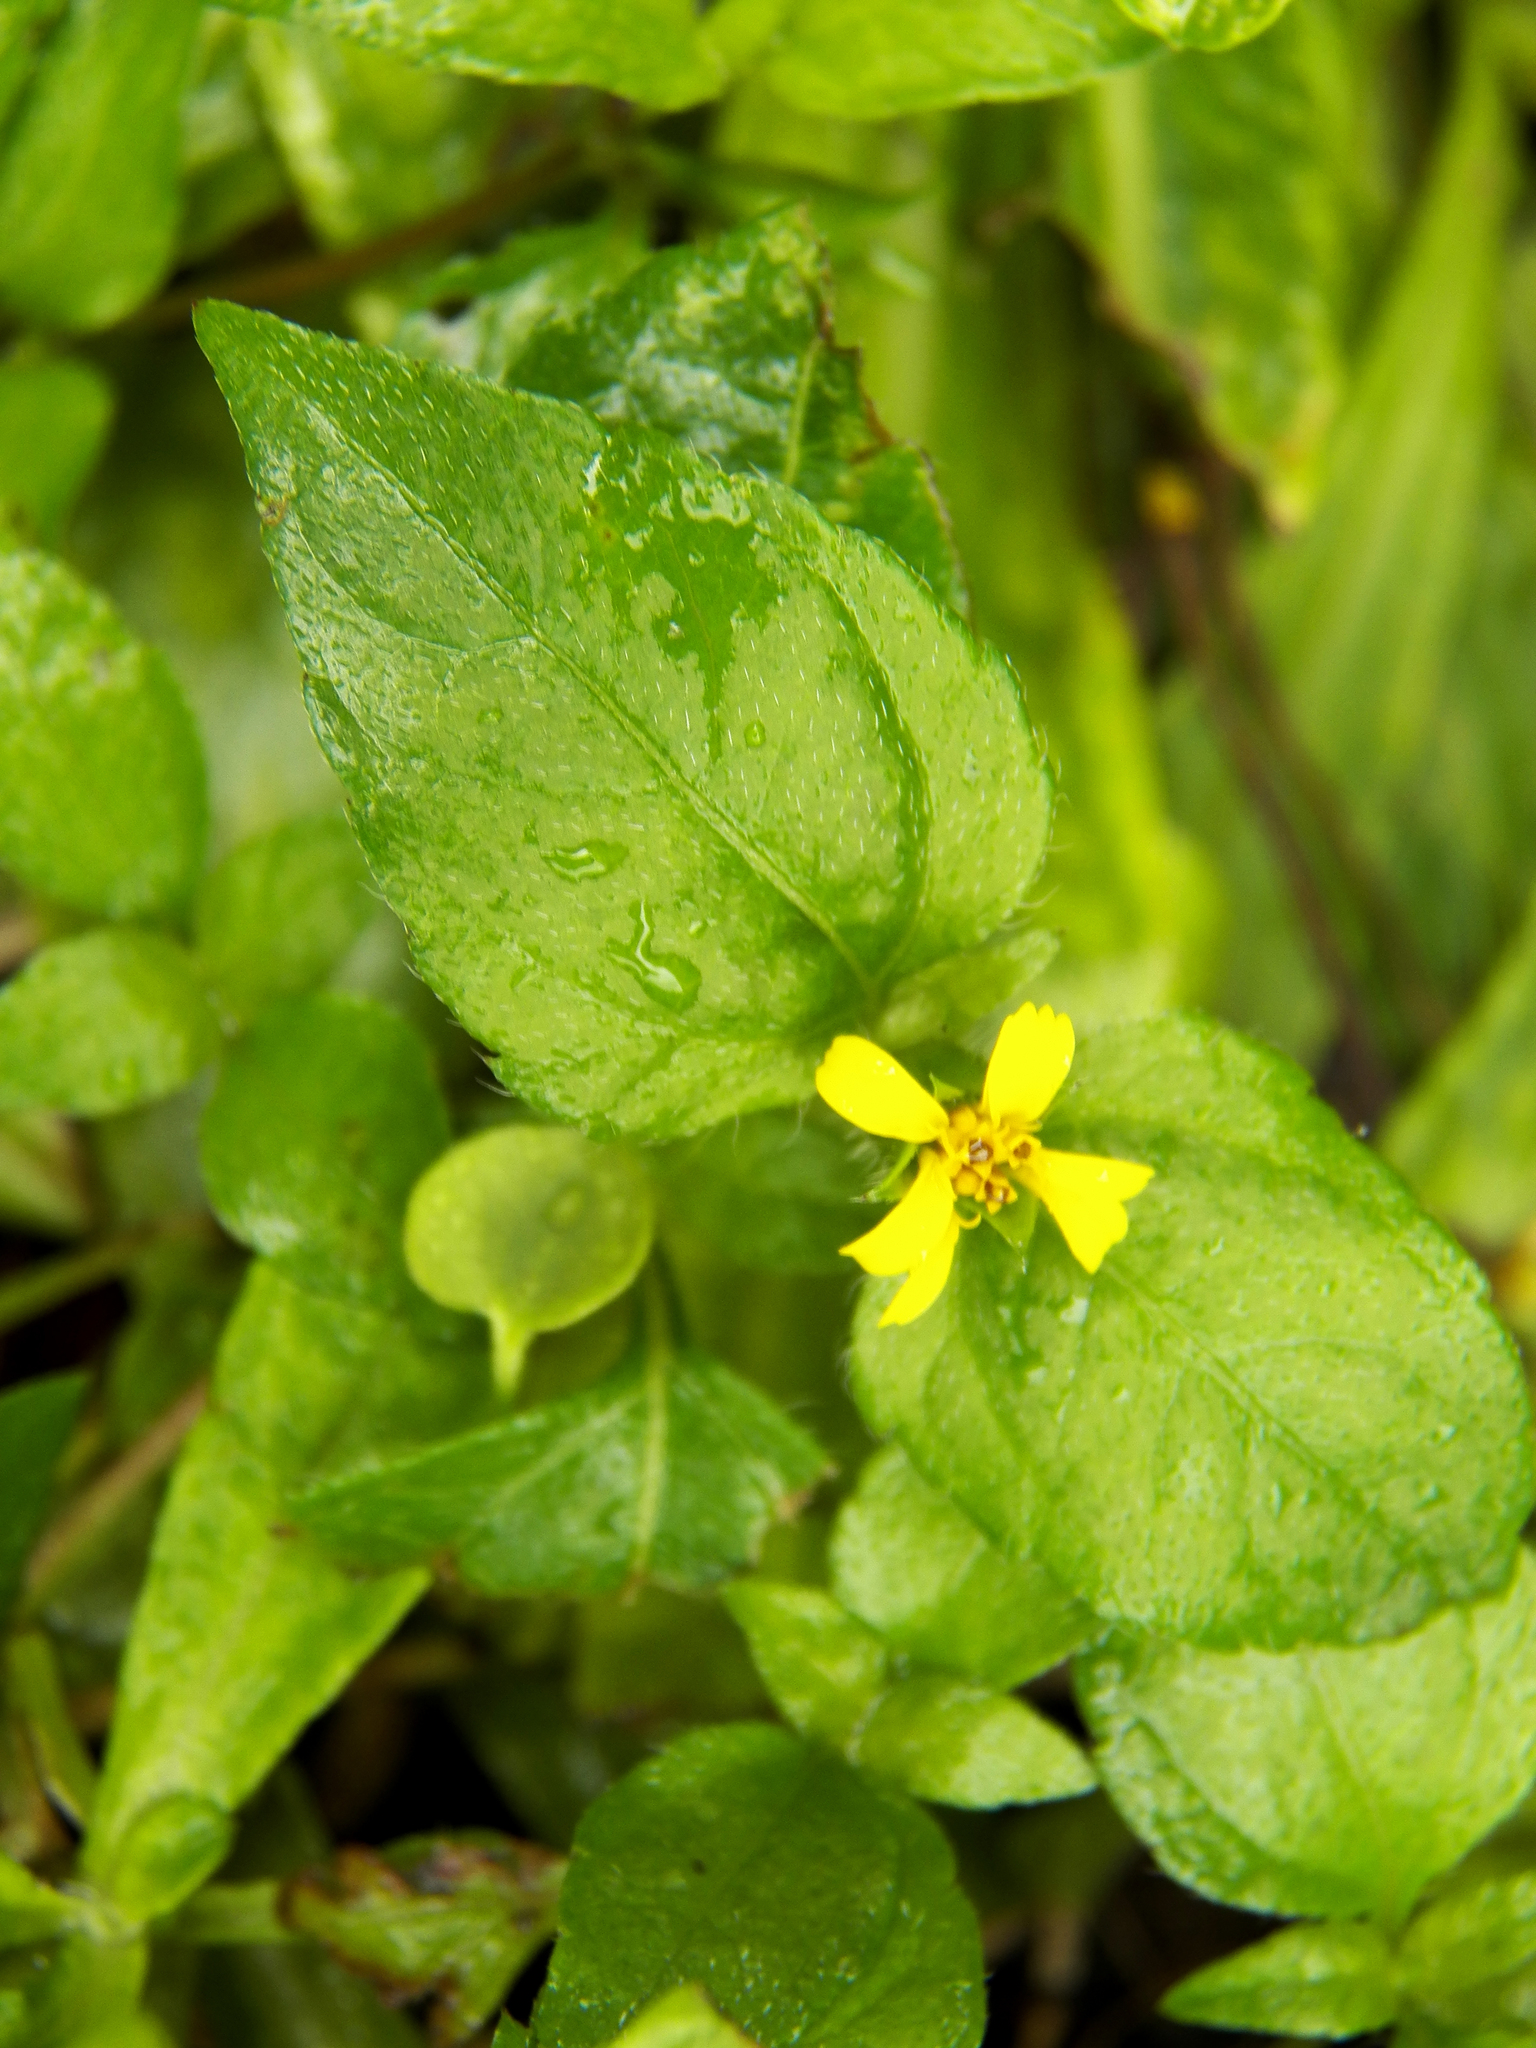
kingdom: Plantae
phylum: Tracheophyta
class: Magnoliopsida
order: Asterales
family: Asteraceae
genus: Calyptocarpus
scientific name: Calyptocarpus vialis
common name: Straggler daisy
